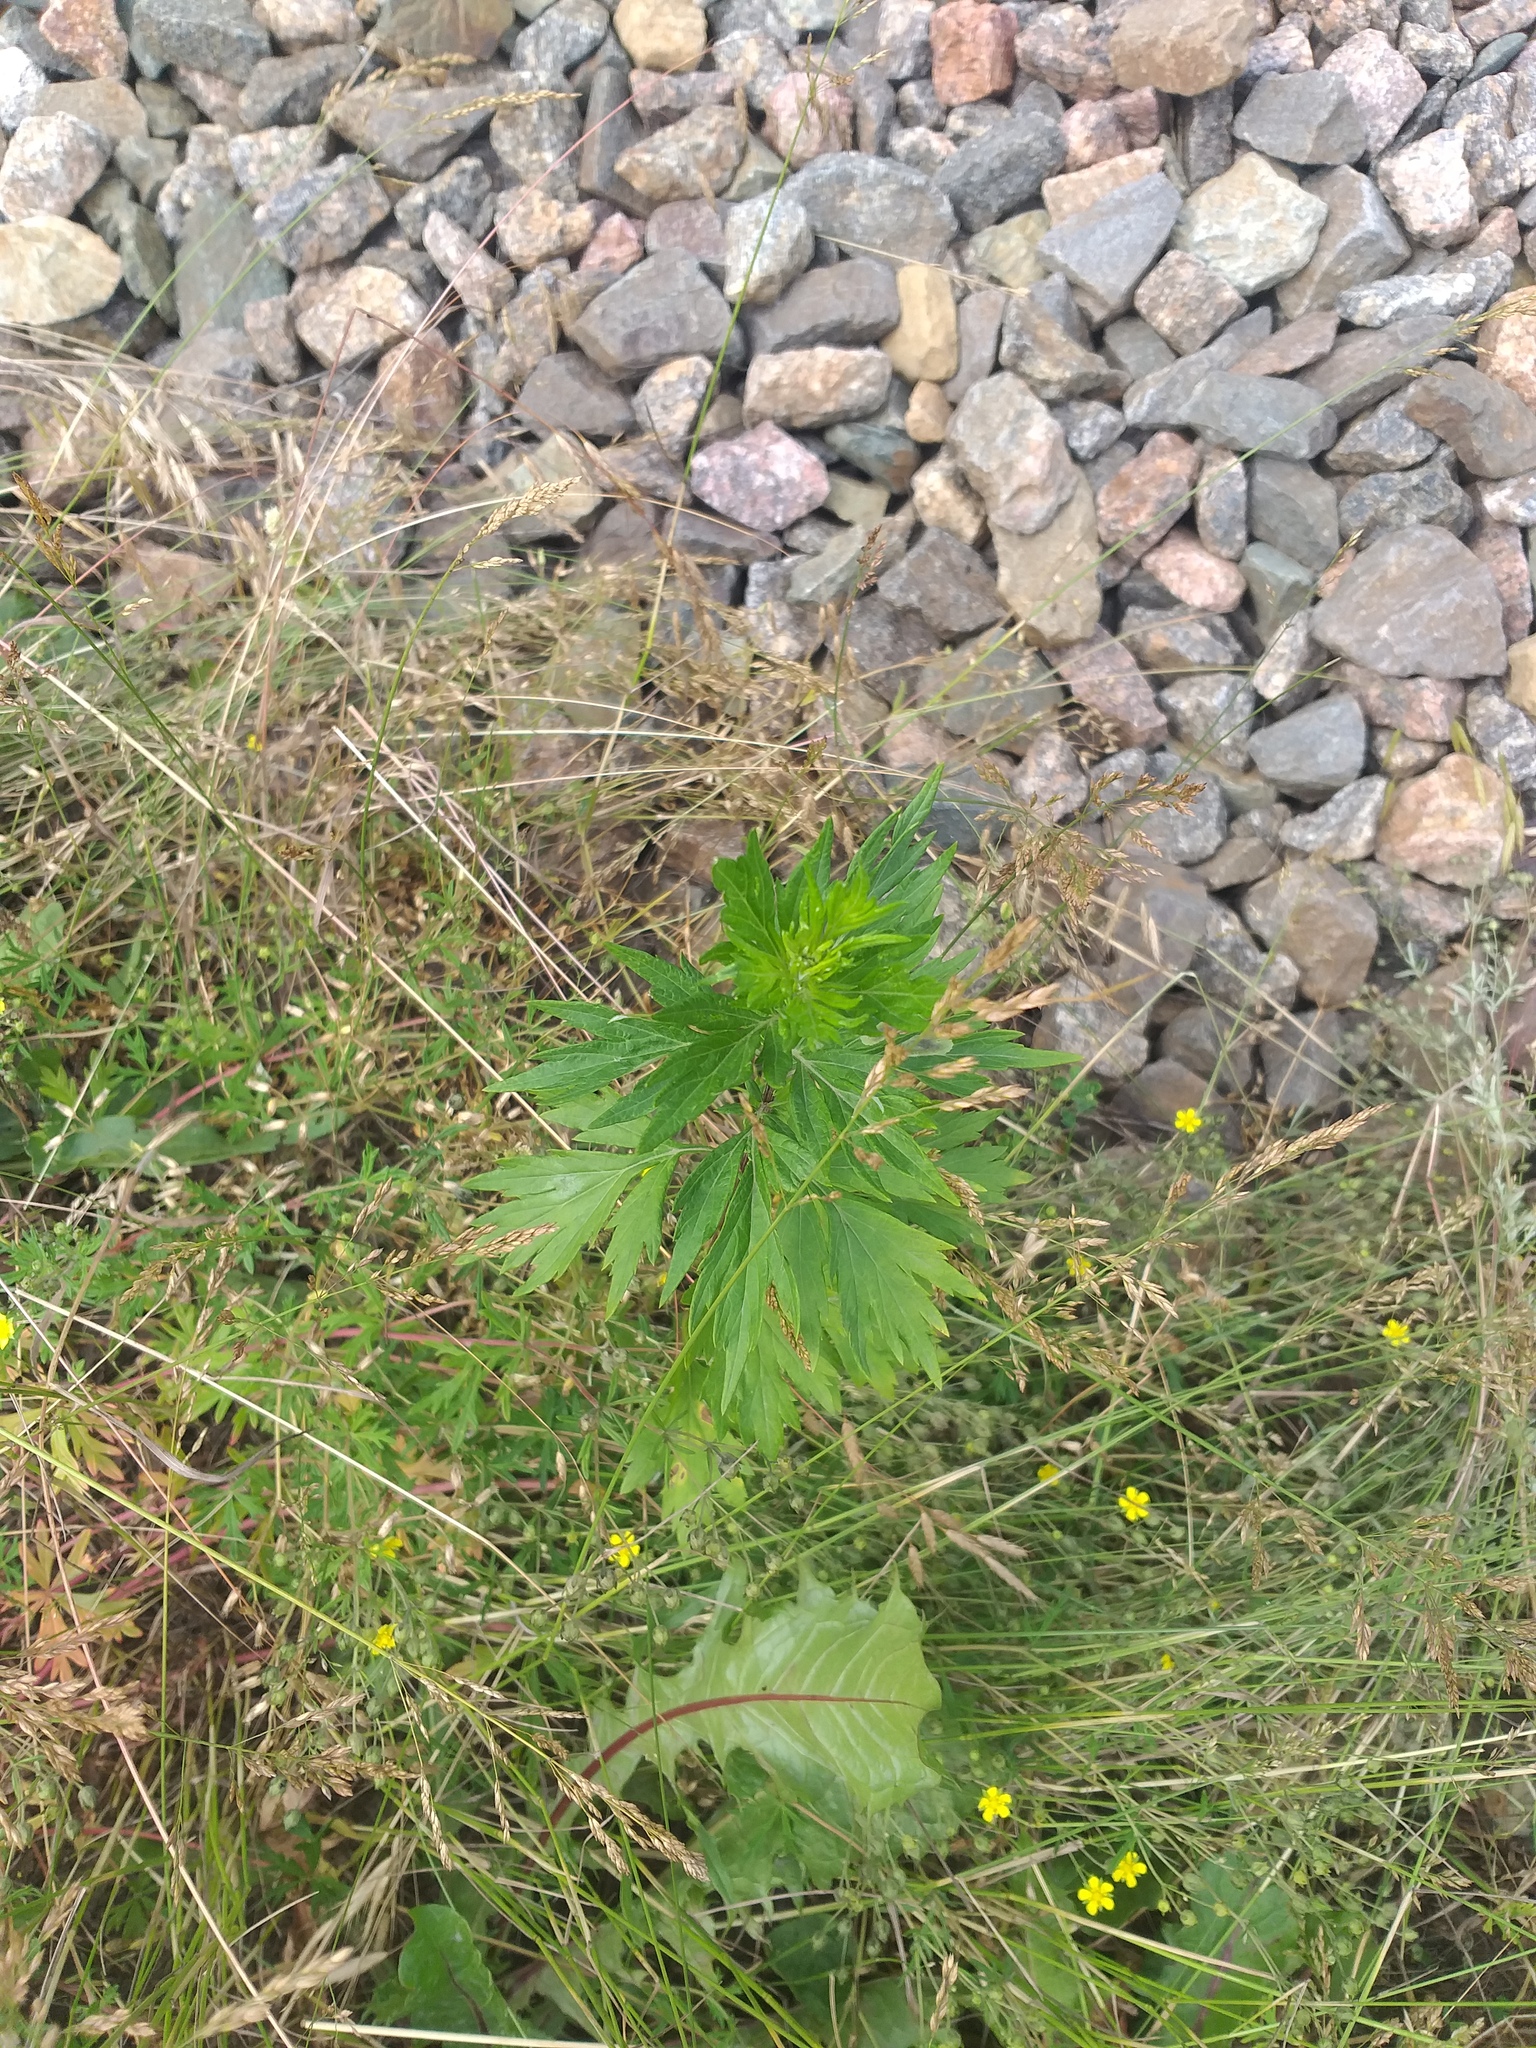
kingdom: Plantae
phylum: Tracheophyta
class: Magnoliopsida
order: Asterales
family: Asteraceae
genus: Artemisia
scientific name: Artemisia vulgaris
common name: Mugwort
